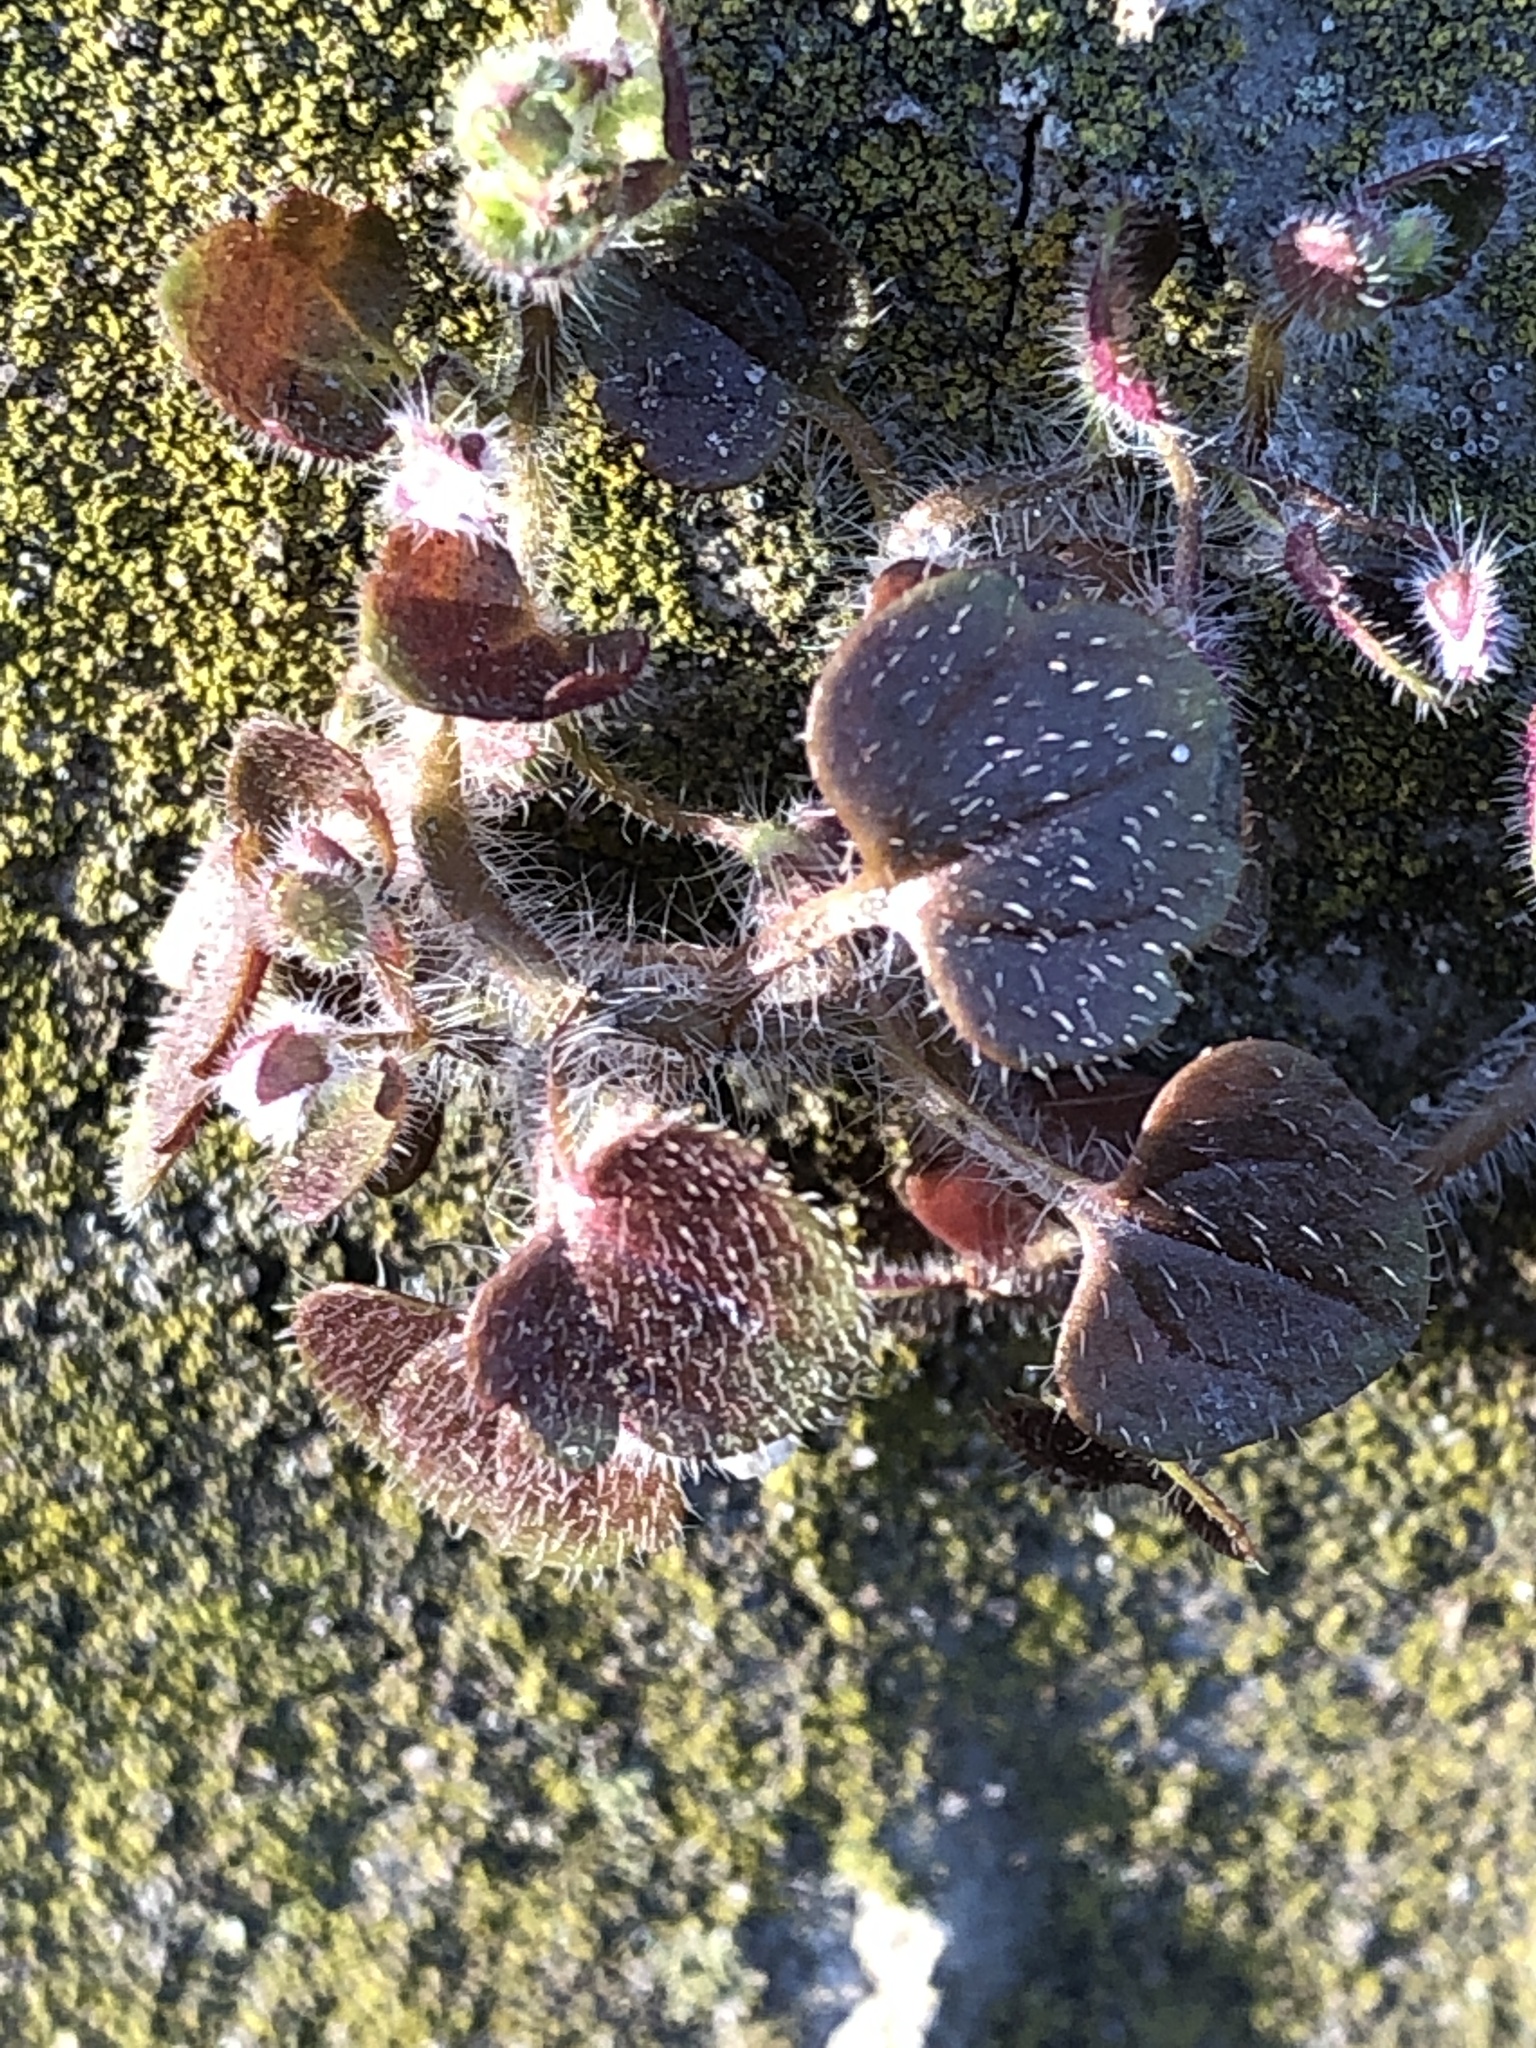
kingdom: Plantae
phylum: Tracheophyta
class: Magnoliopsida
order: Lamiales
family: Plantaginaceae
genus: Veronica
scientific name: Veronica sublobata
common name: False ivy-leaved speedwell
